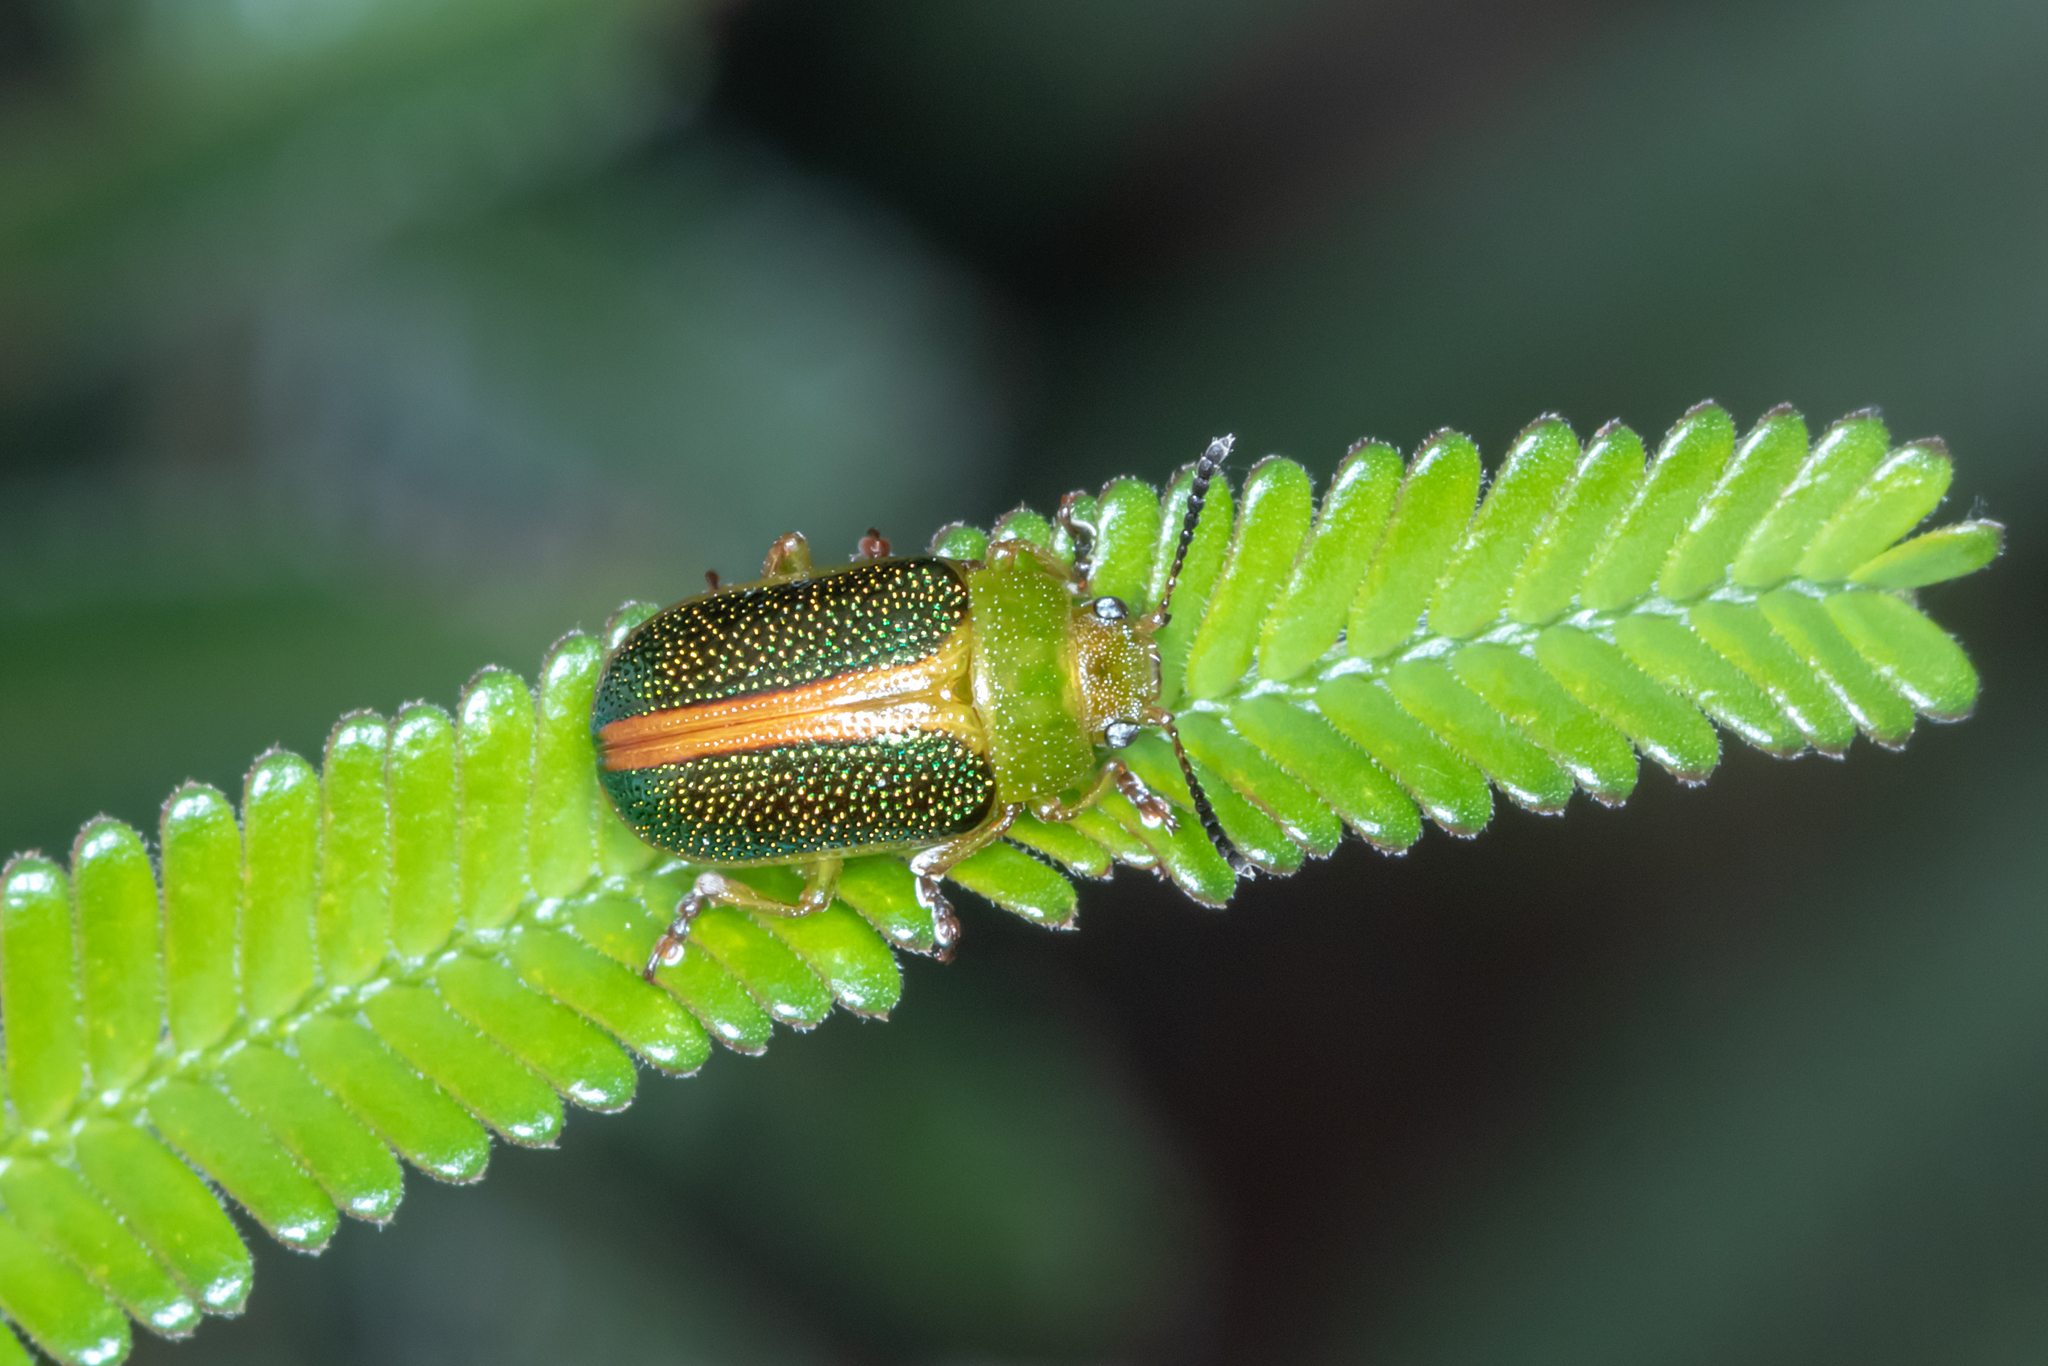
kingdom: Animalia
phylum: Arthropoda
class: Insecta
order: Coleoptera
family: Chrysomelidae
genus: Calomela
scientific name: Calomela
